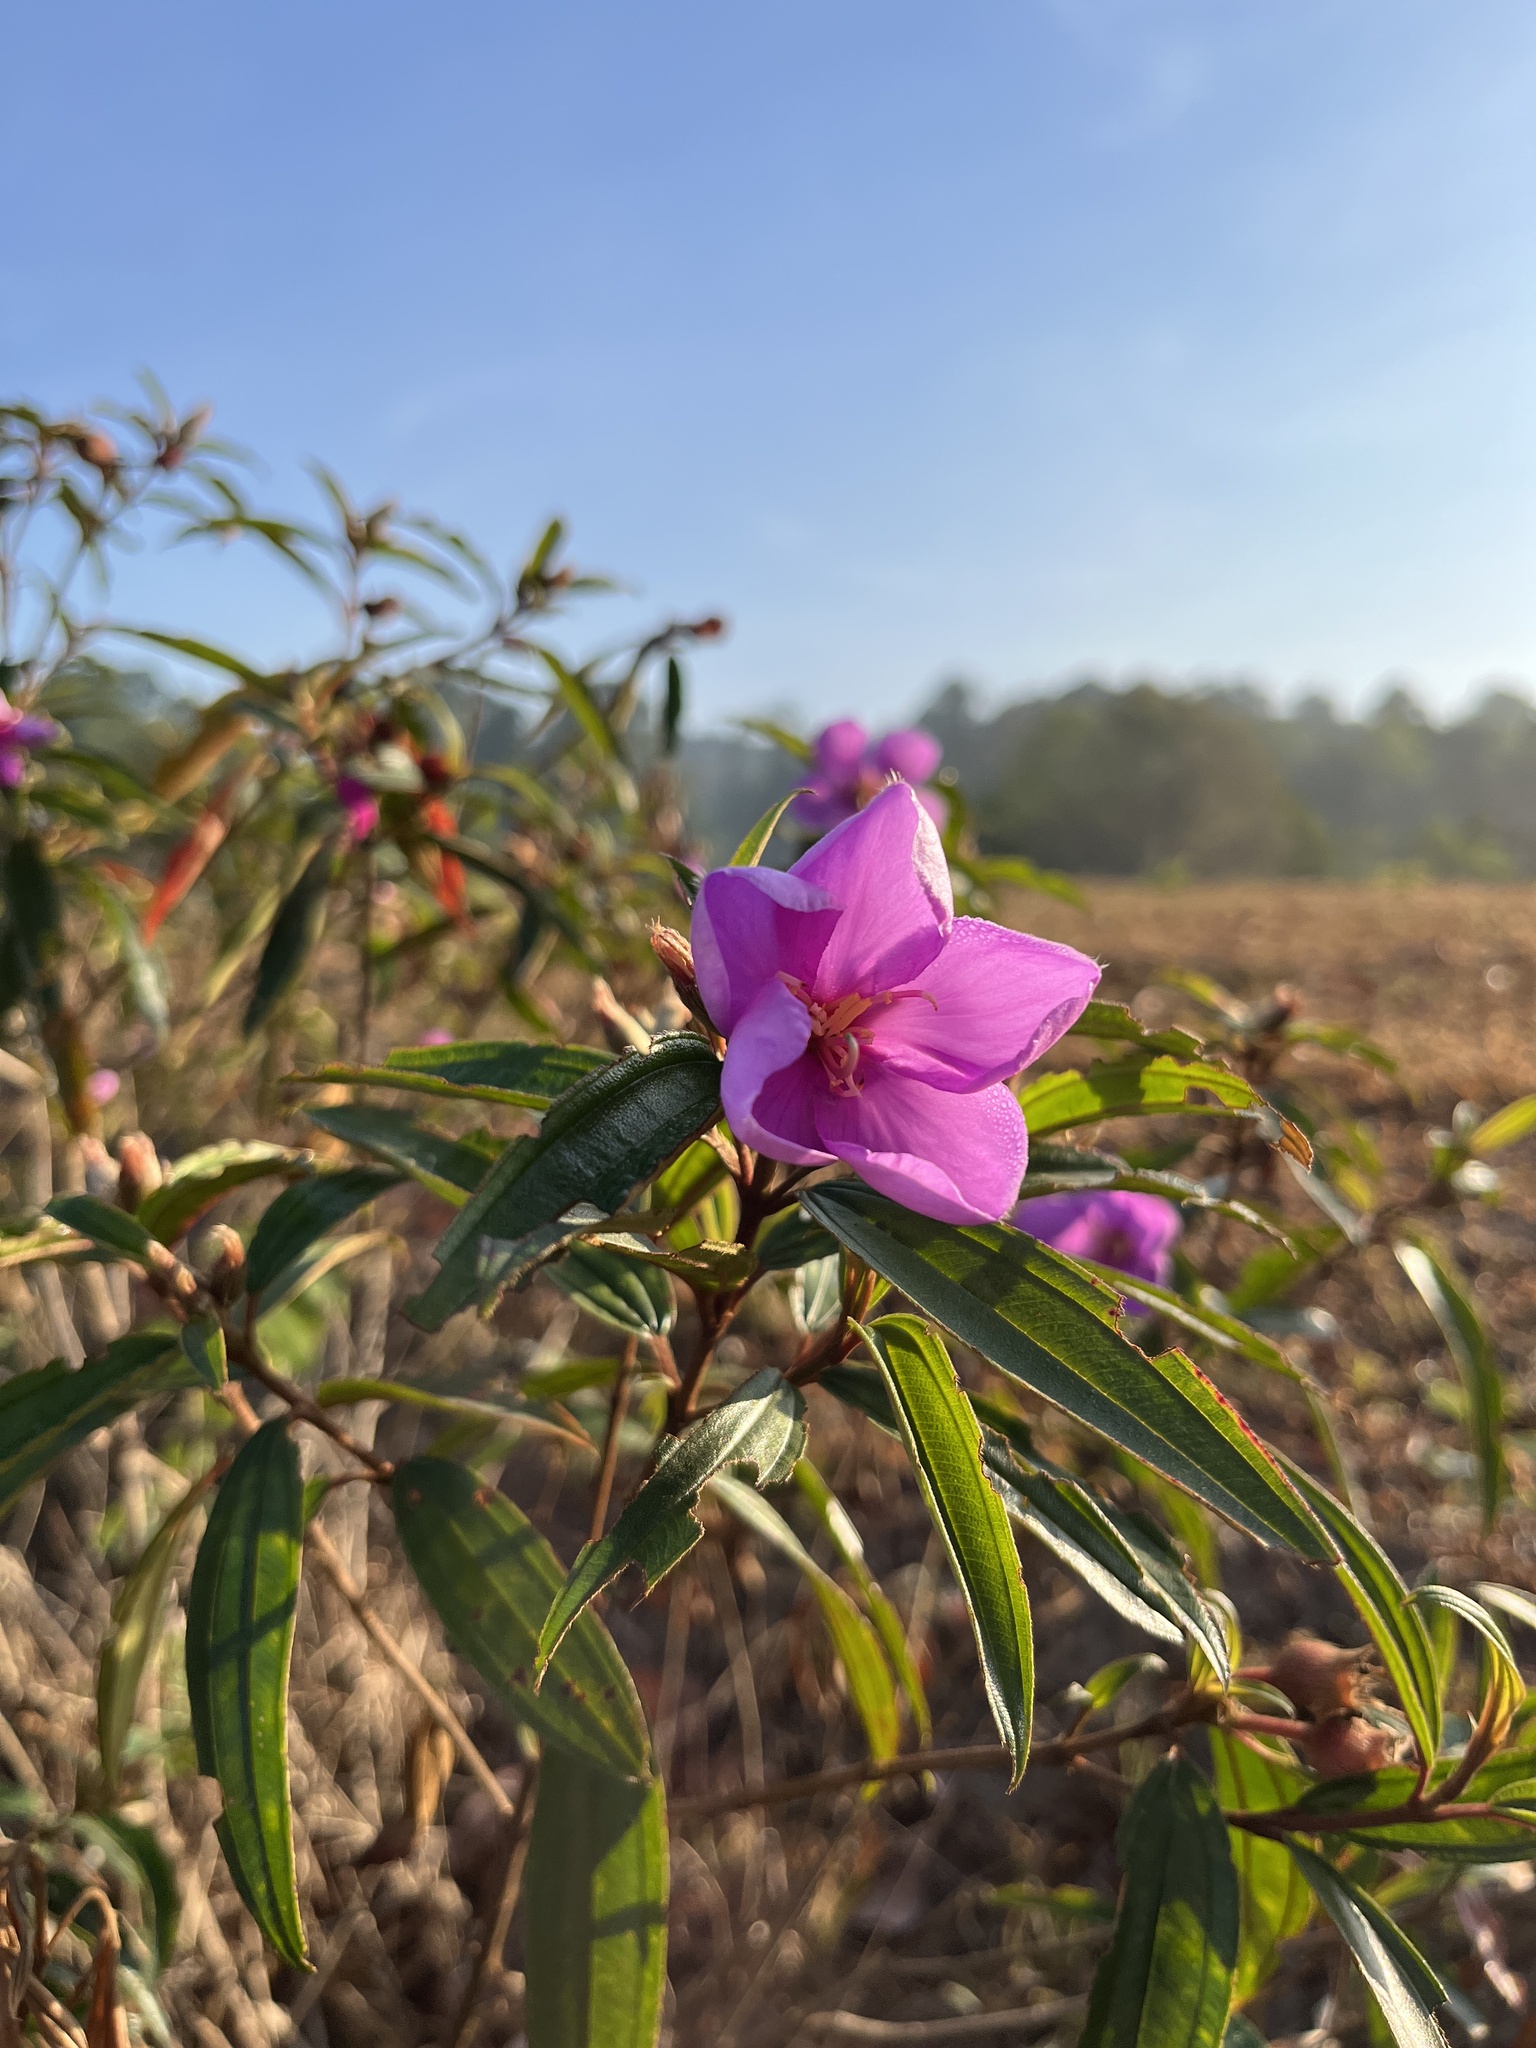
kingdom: Plantae
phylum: Tracheophyta
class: Magnoliopsida
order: Myrtales
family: Melastomataceae
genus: Melastoma
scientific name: Melastoma malabathricum
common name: Indian-rhododendron
